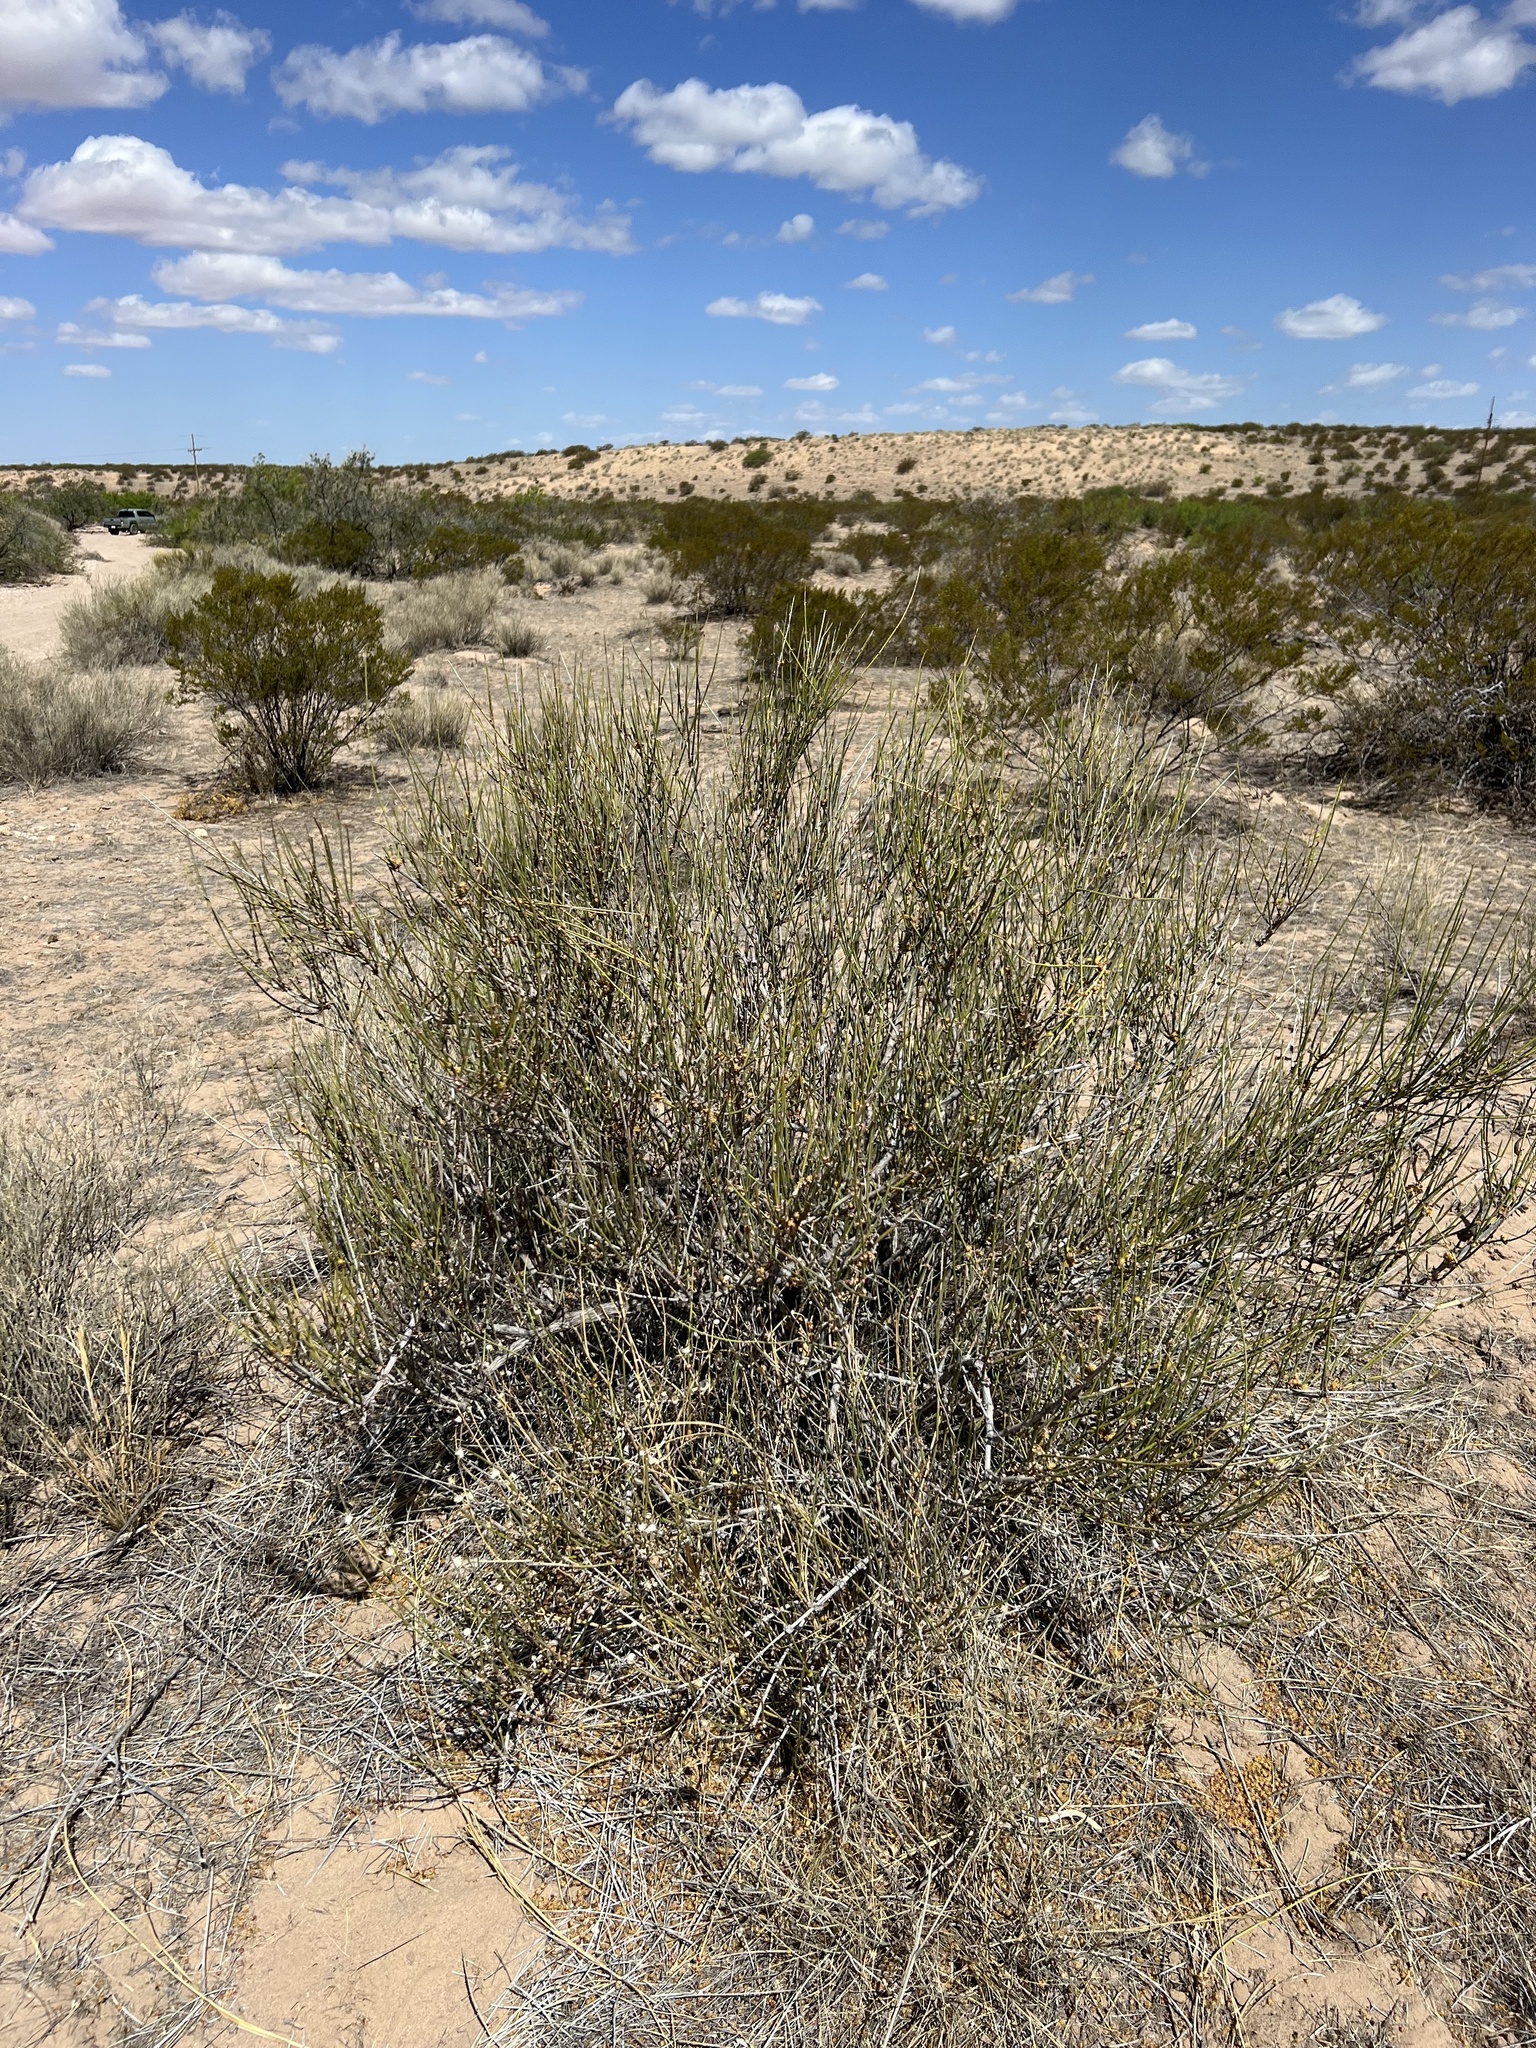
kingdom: Plantae
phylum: Tracheophyta
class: Gnetopsida
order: Ephedrales
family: Ephedraceae
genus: Ephedra
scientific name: Ephedra trifurca
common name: Mexican-tea
